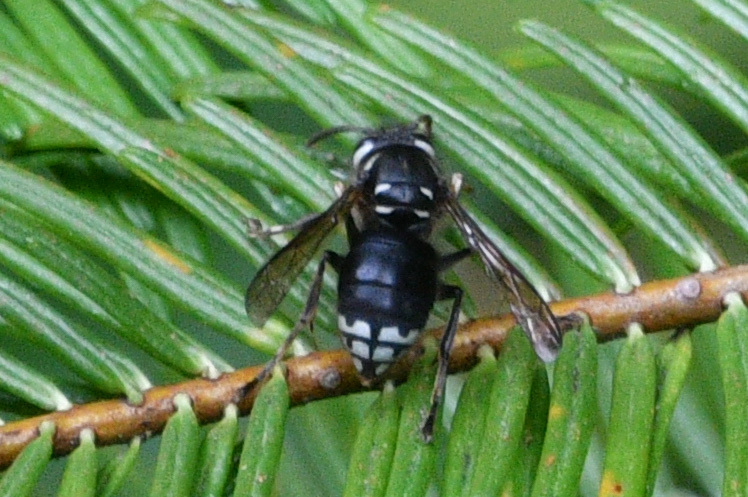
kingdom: Animalia
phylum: Arthropoda
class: Insecta
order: Hymenoptera
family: Vespidae
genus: Dolichovespula
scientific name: Dolichovespula maculata
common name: Bald-faced hornet
